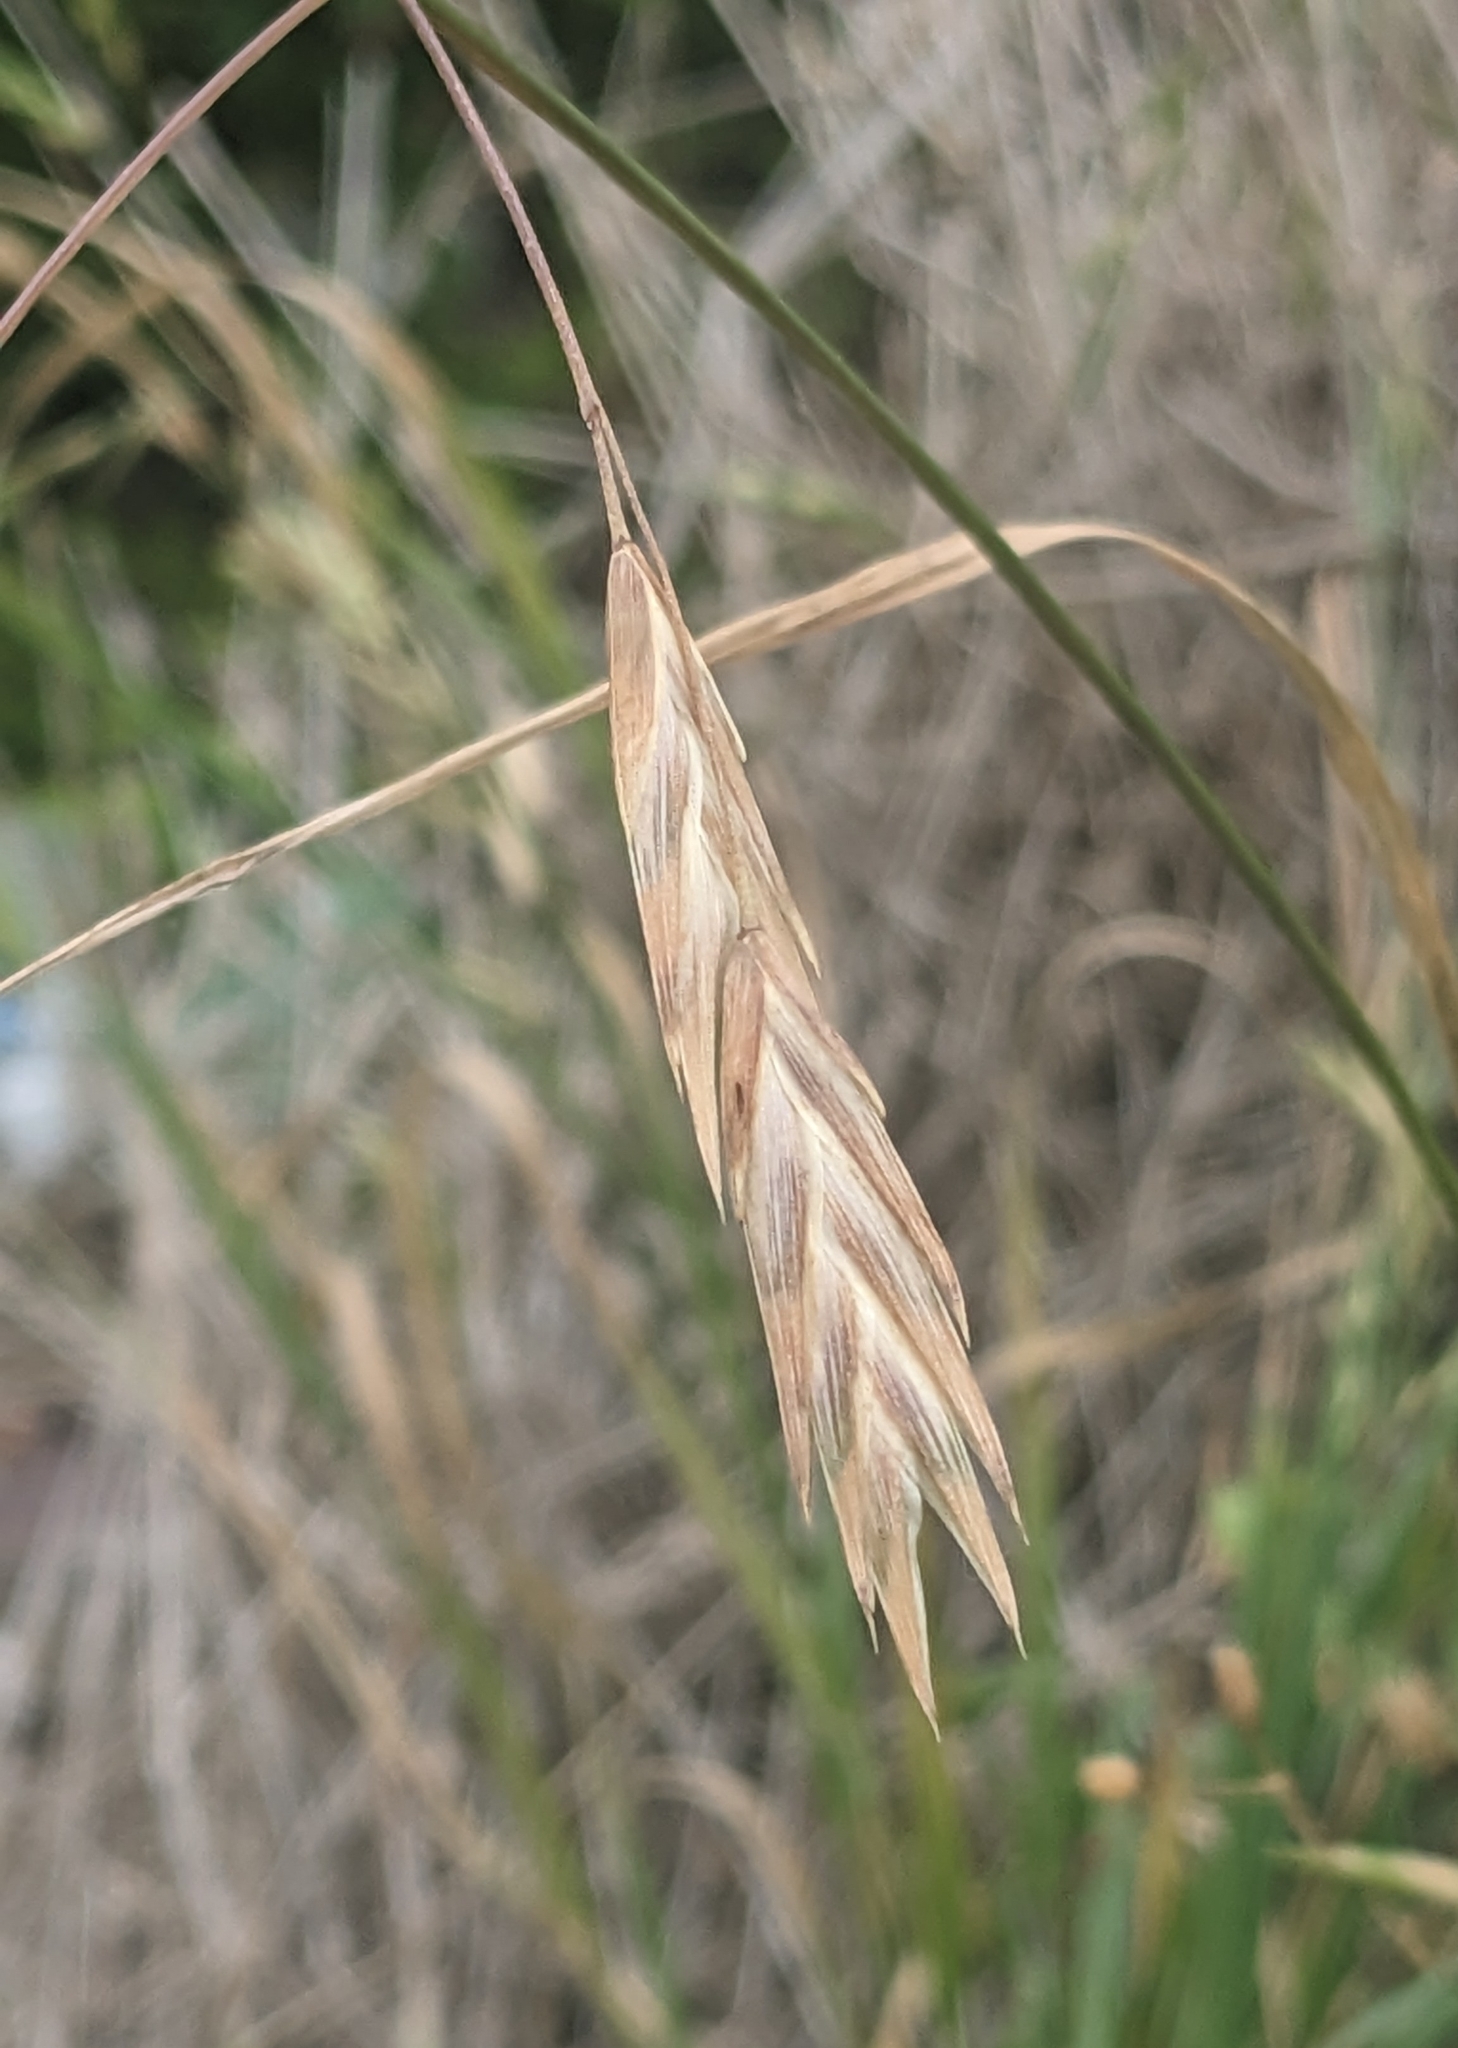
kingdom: Plantae
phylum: Tracheophyta
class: Liliopsida
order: Poales
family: Poaceae
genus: Bromus
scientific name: Bromus catharticus
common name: Rescuegrass
